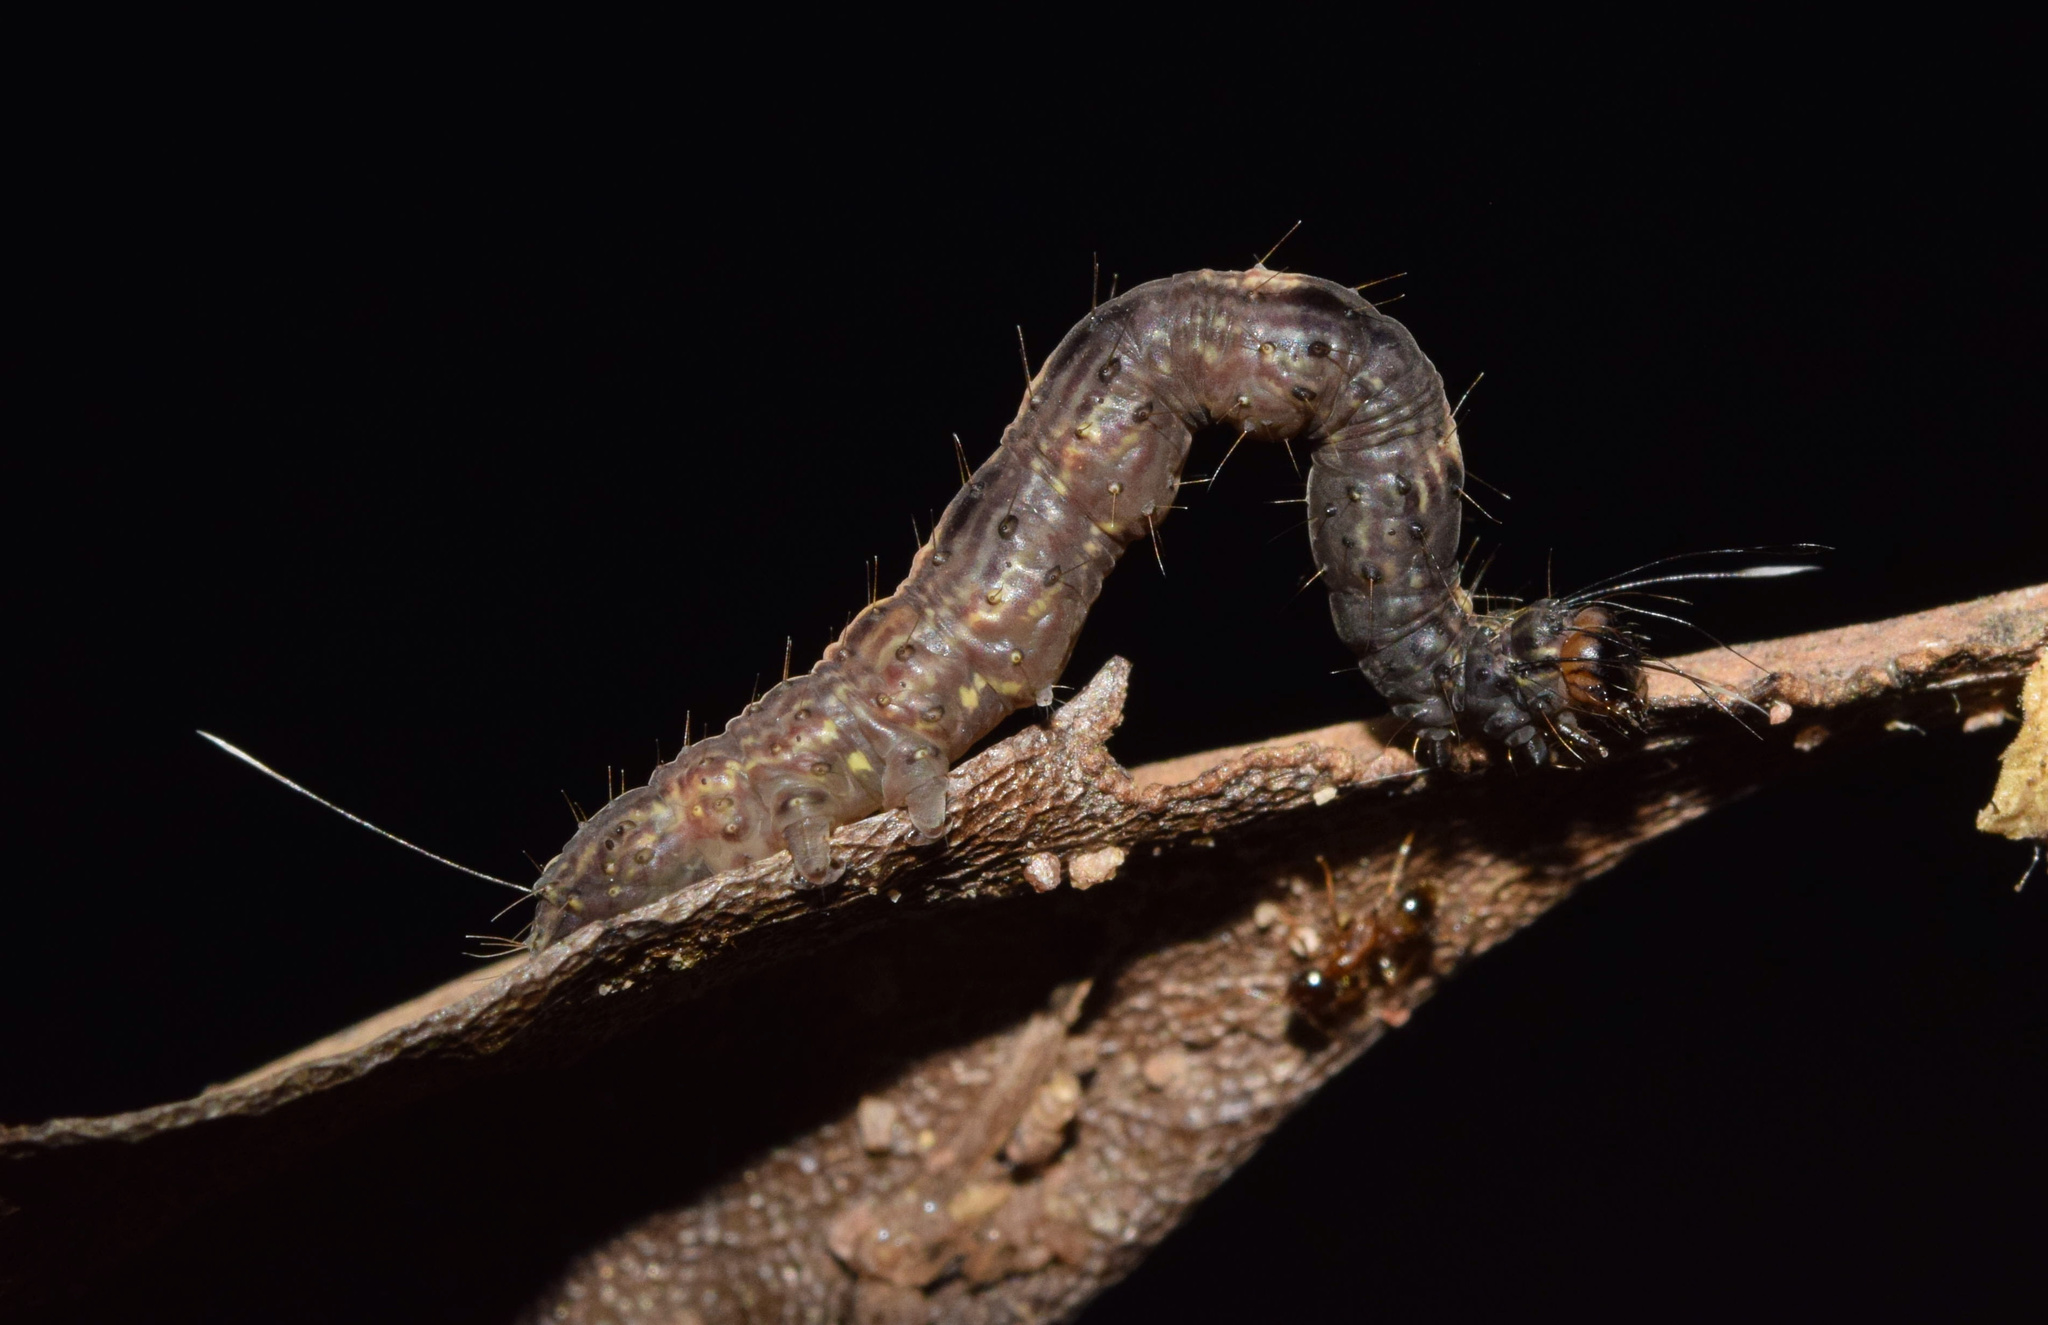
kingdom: Animalia
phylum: Arthropoda
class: Insecta
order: Lepidoptera
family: Noctuidae
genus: Cerynea
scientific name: Cerynea thermesialis
